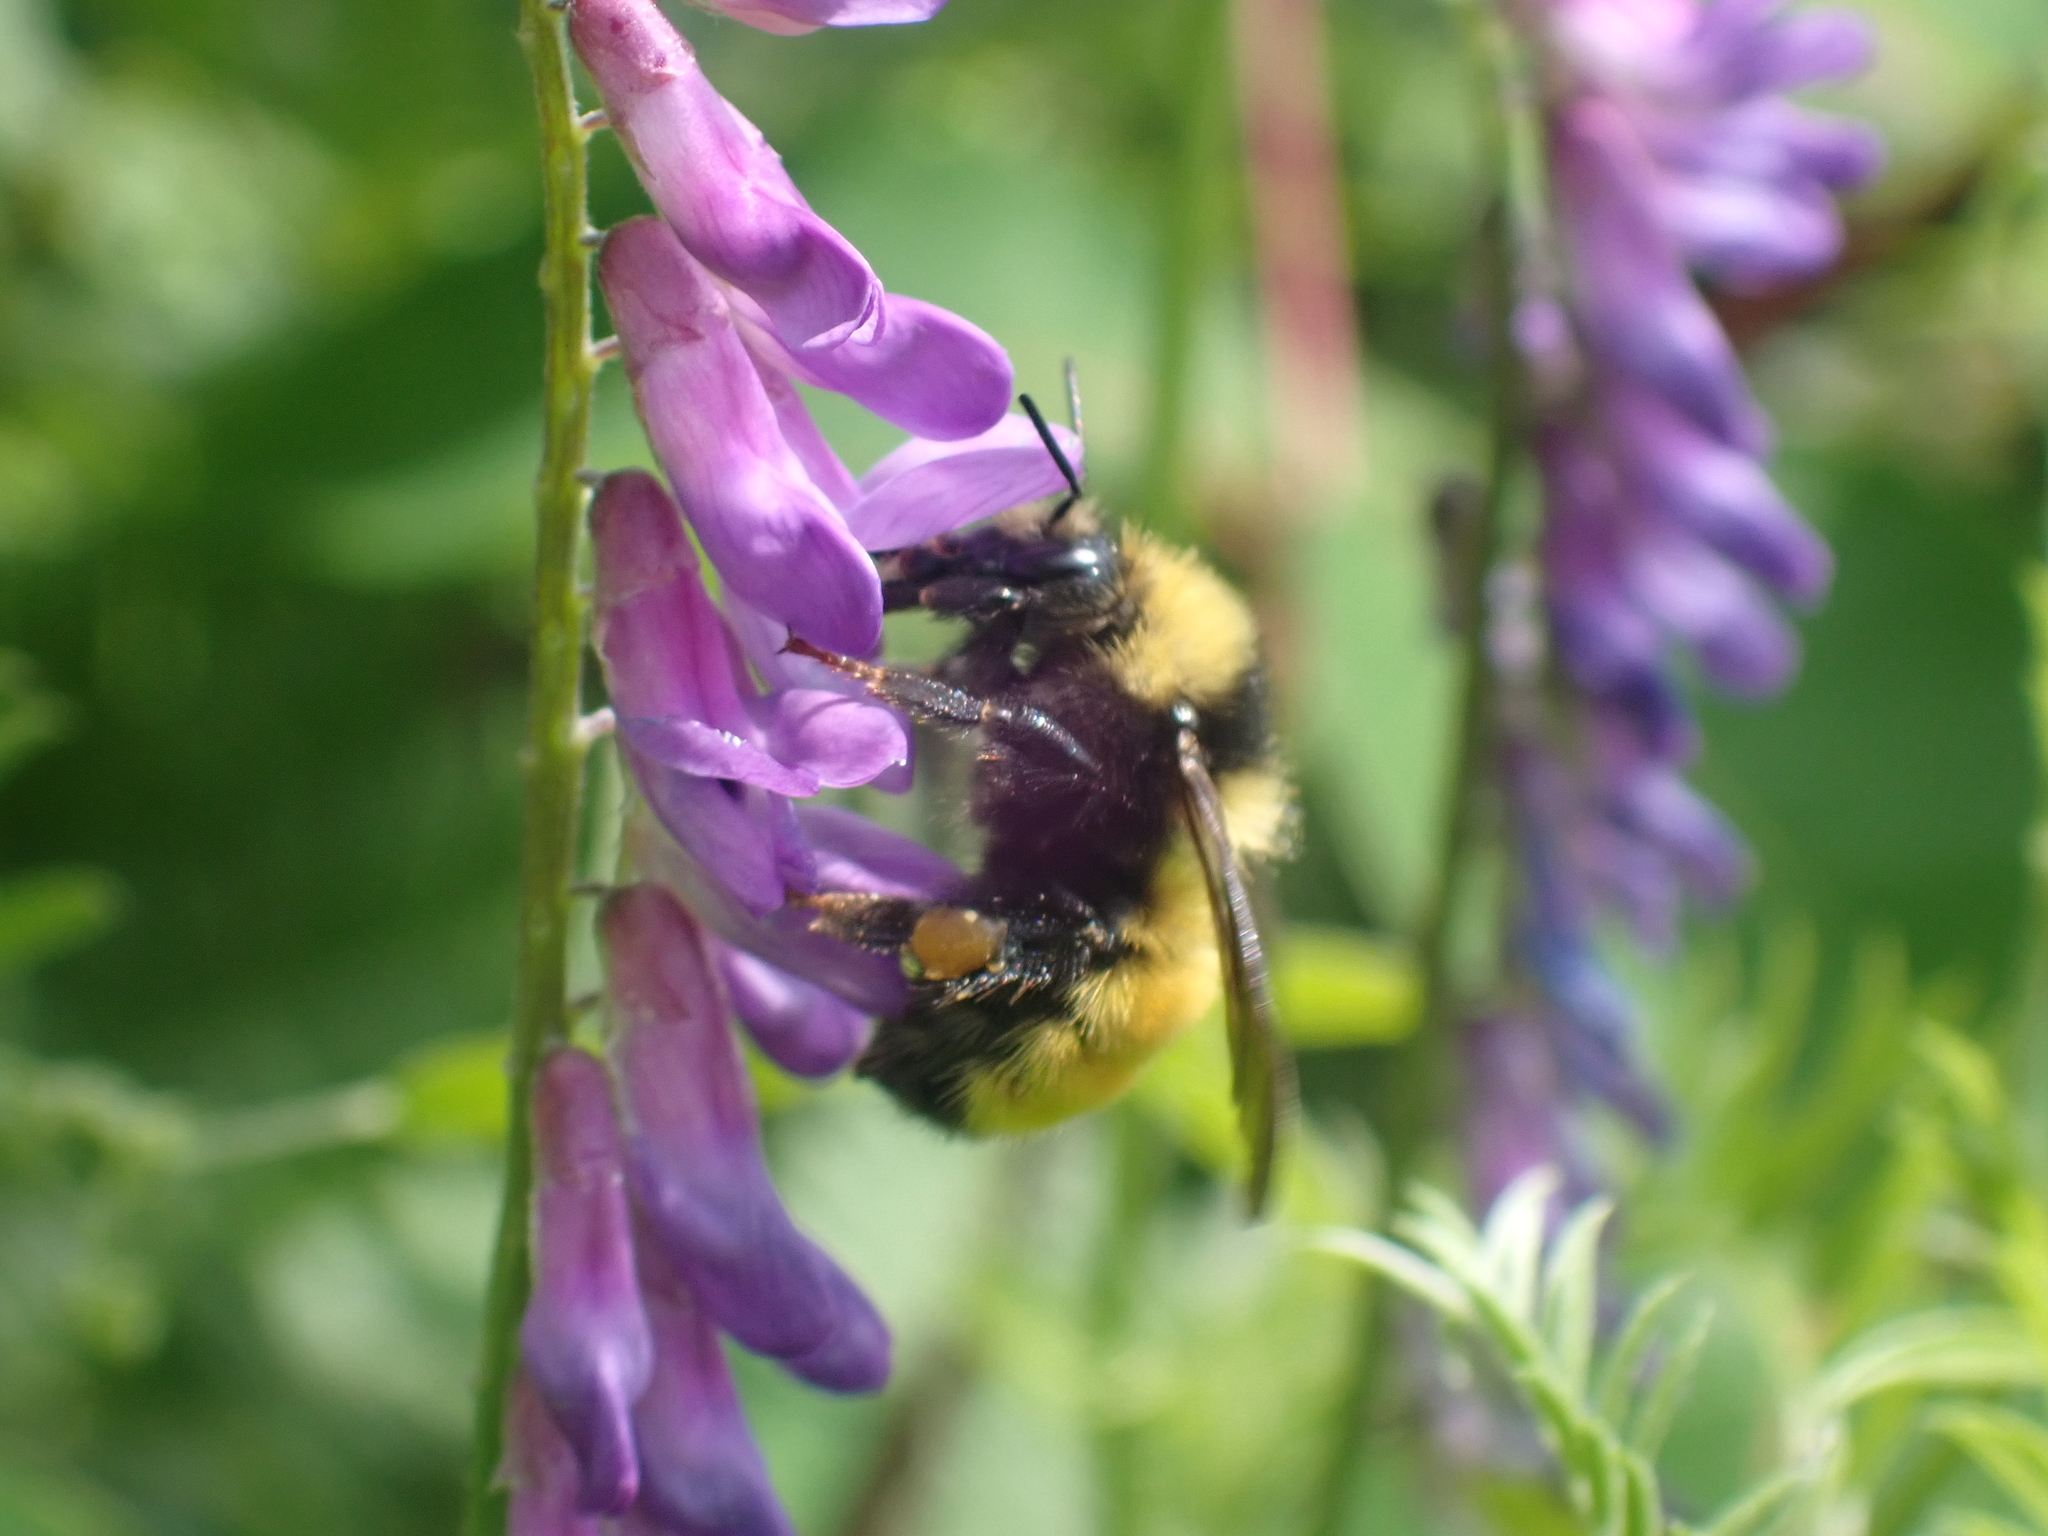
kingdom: Animalia
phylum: Arthropoda
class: Insecta
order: Hymenoptera
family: Apidae
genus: Bombus
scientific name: Bombus borealis
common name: Northern amber bumble bee
